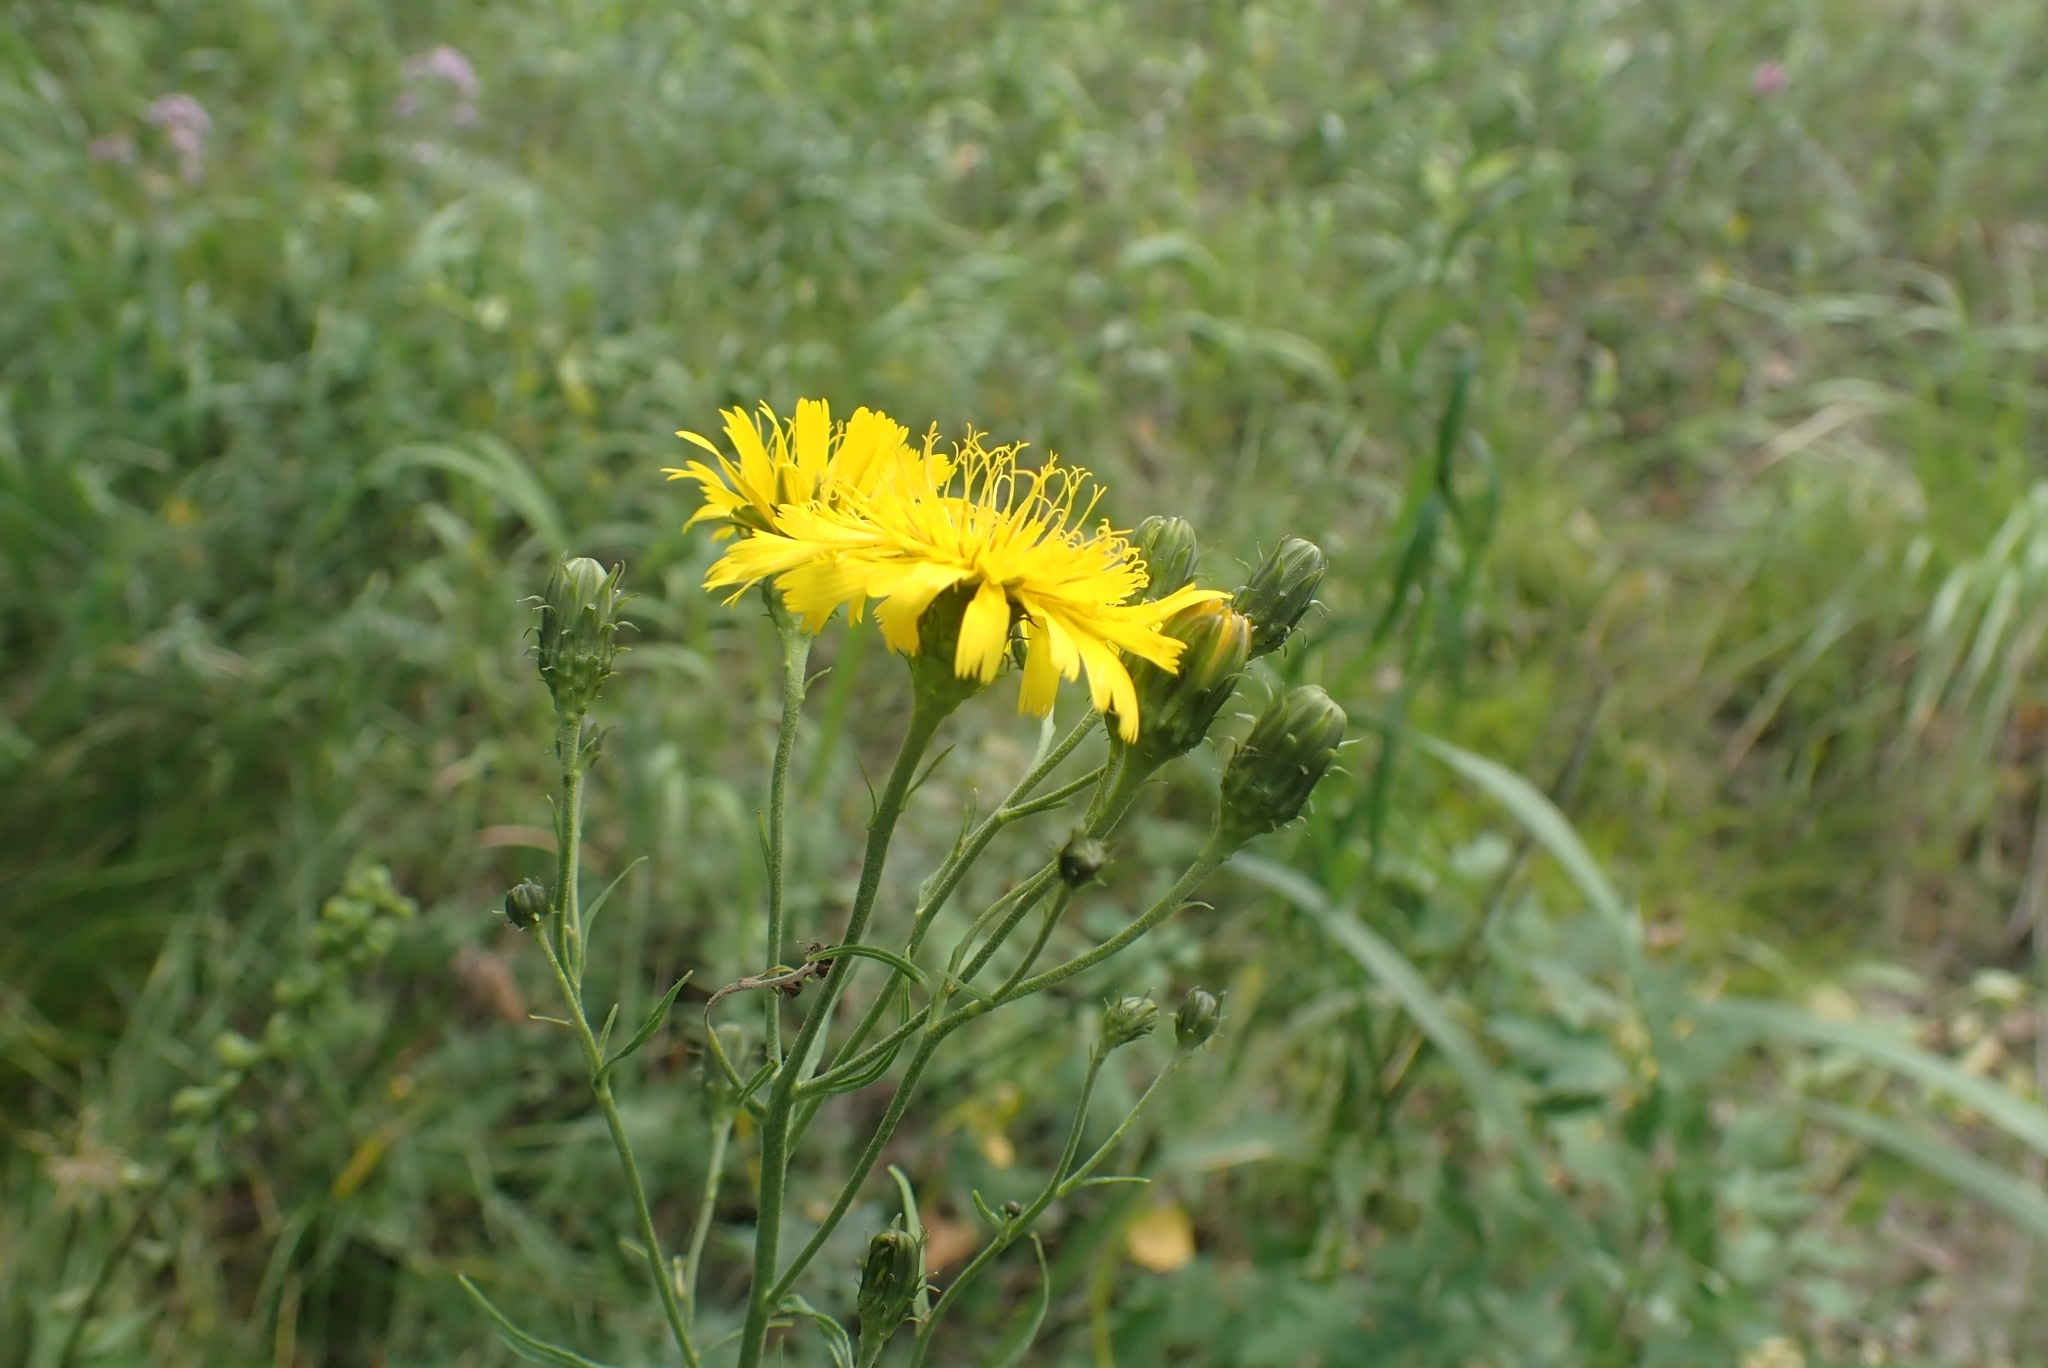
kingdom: Plantae
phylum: Tracheophyta
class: Magnoliopsida
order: Asterales
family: Asteraceae
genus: Hieracium
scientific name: Hieracium umbellatum
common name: Northern hawkweed
